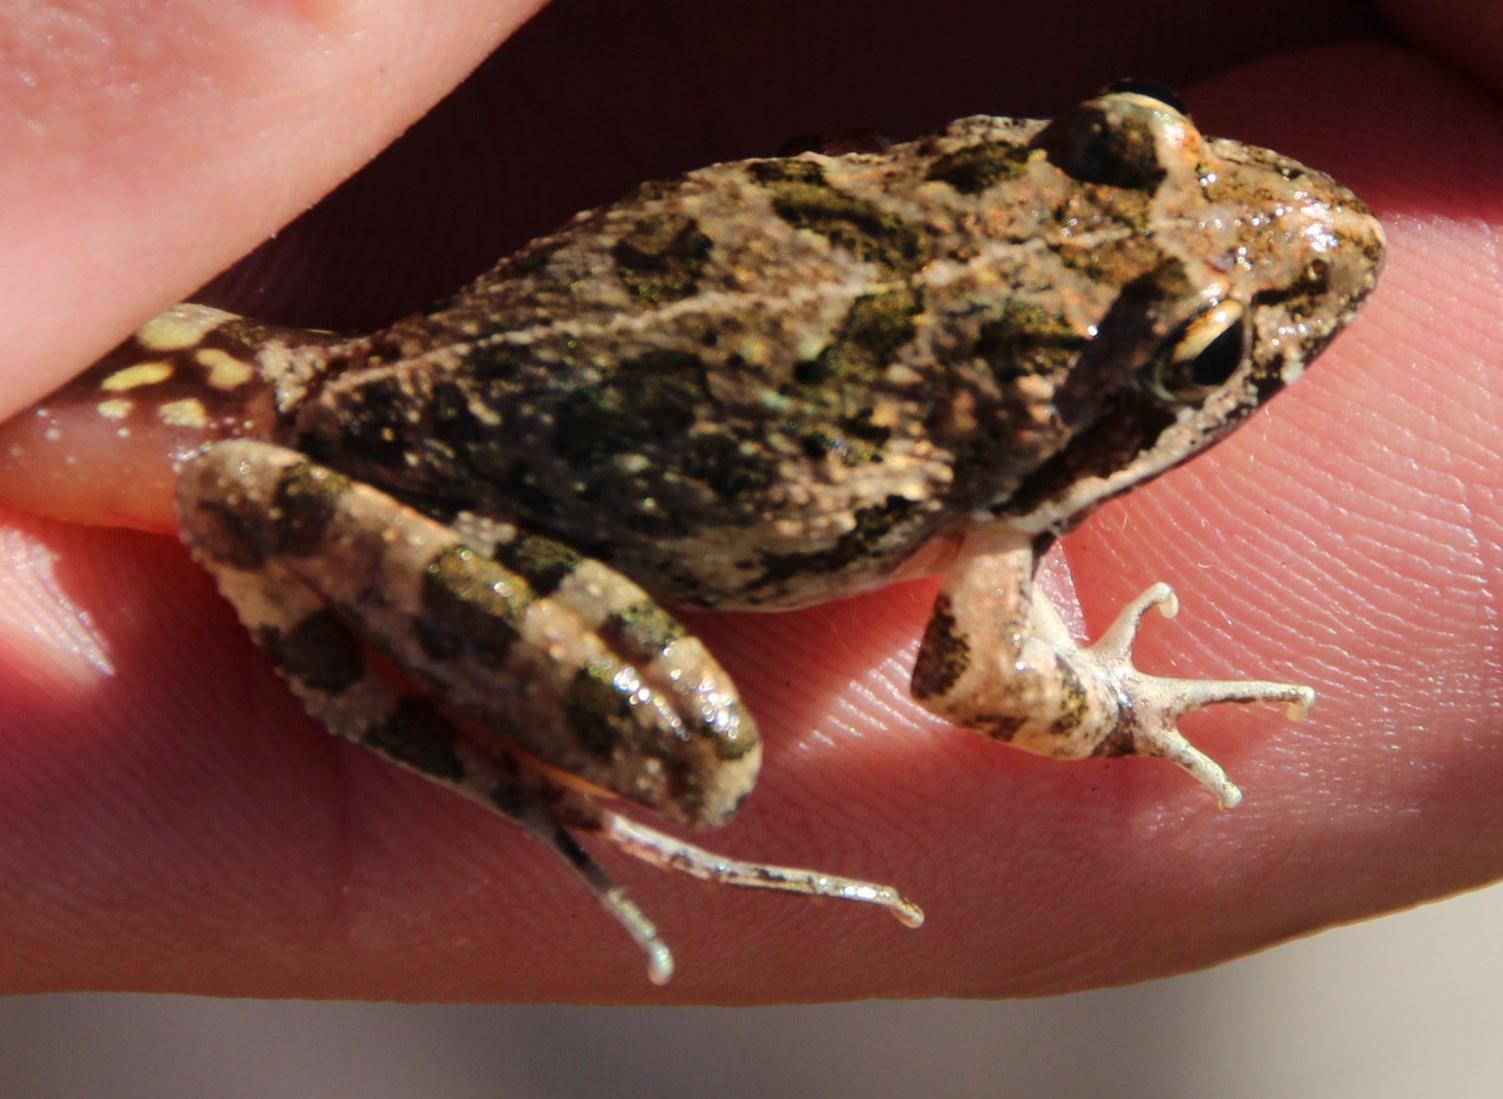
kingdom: Animalia
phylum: Chordata
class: Amphibia
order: Anura
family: Pyxicephalidae
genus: Strongylopus
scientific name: Strongylopus grayii
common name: Gray's stream frog
